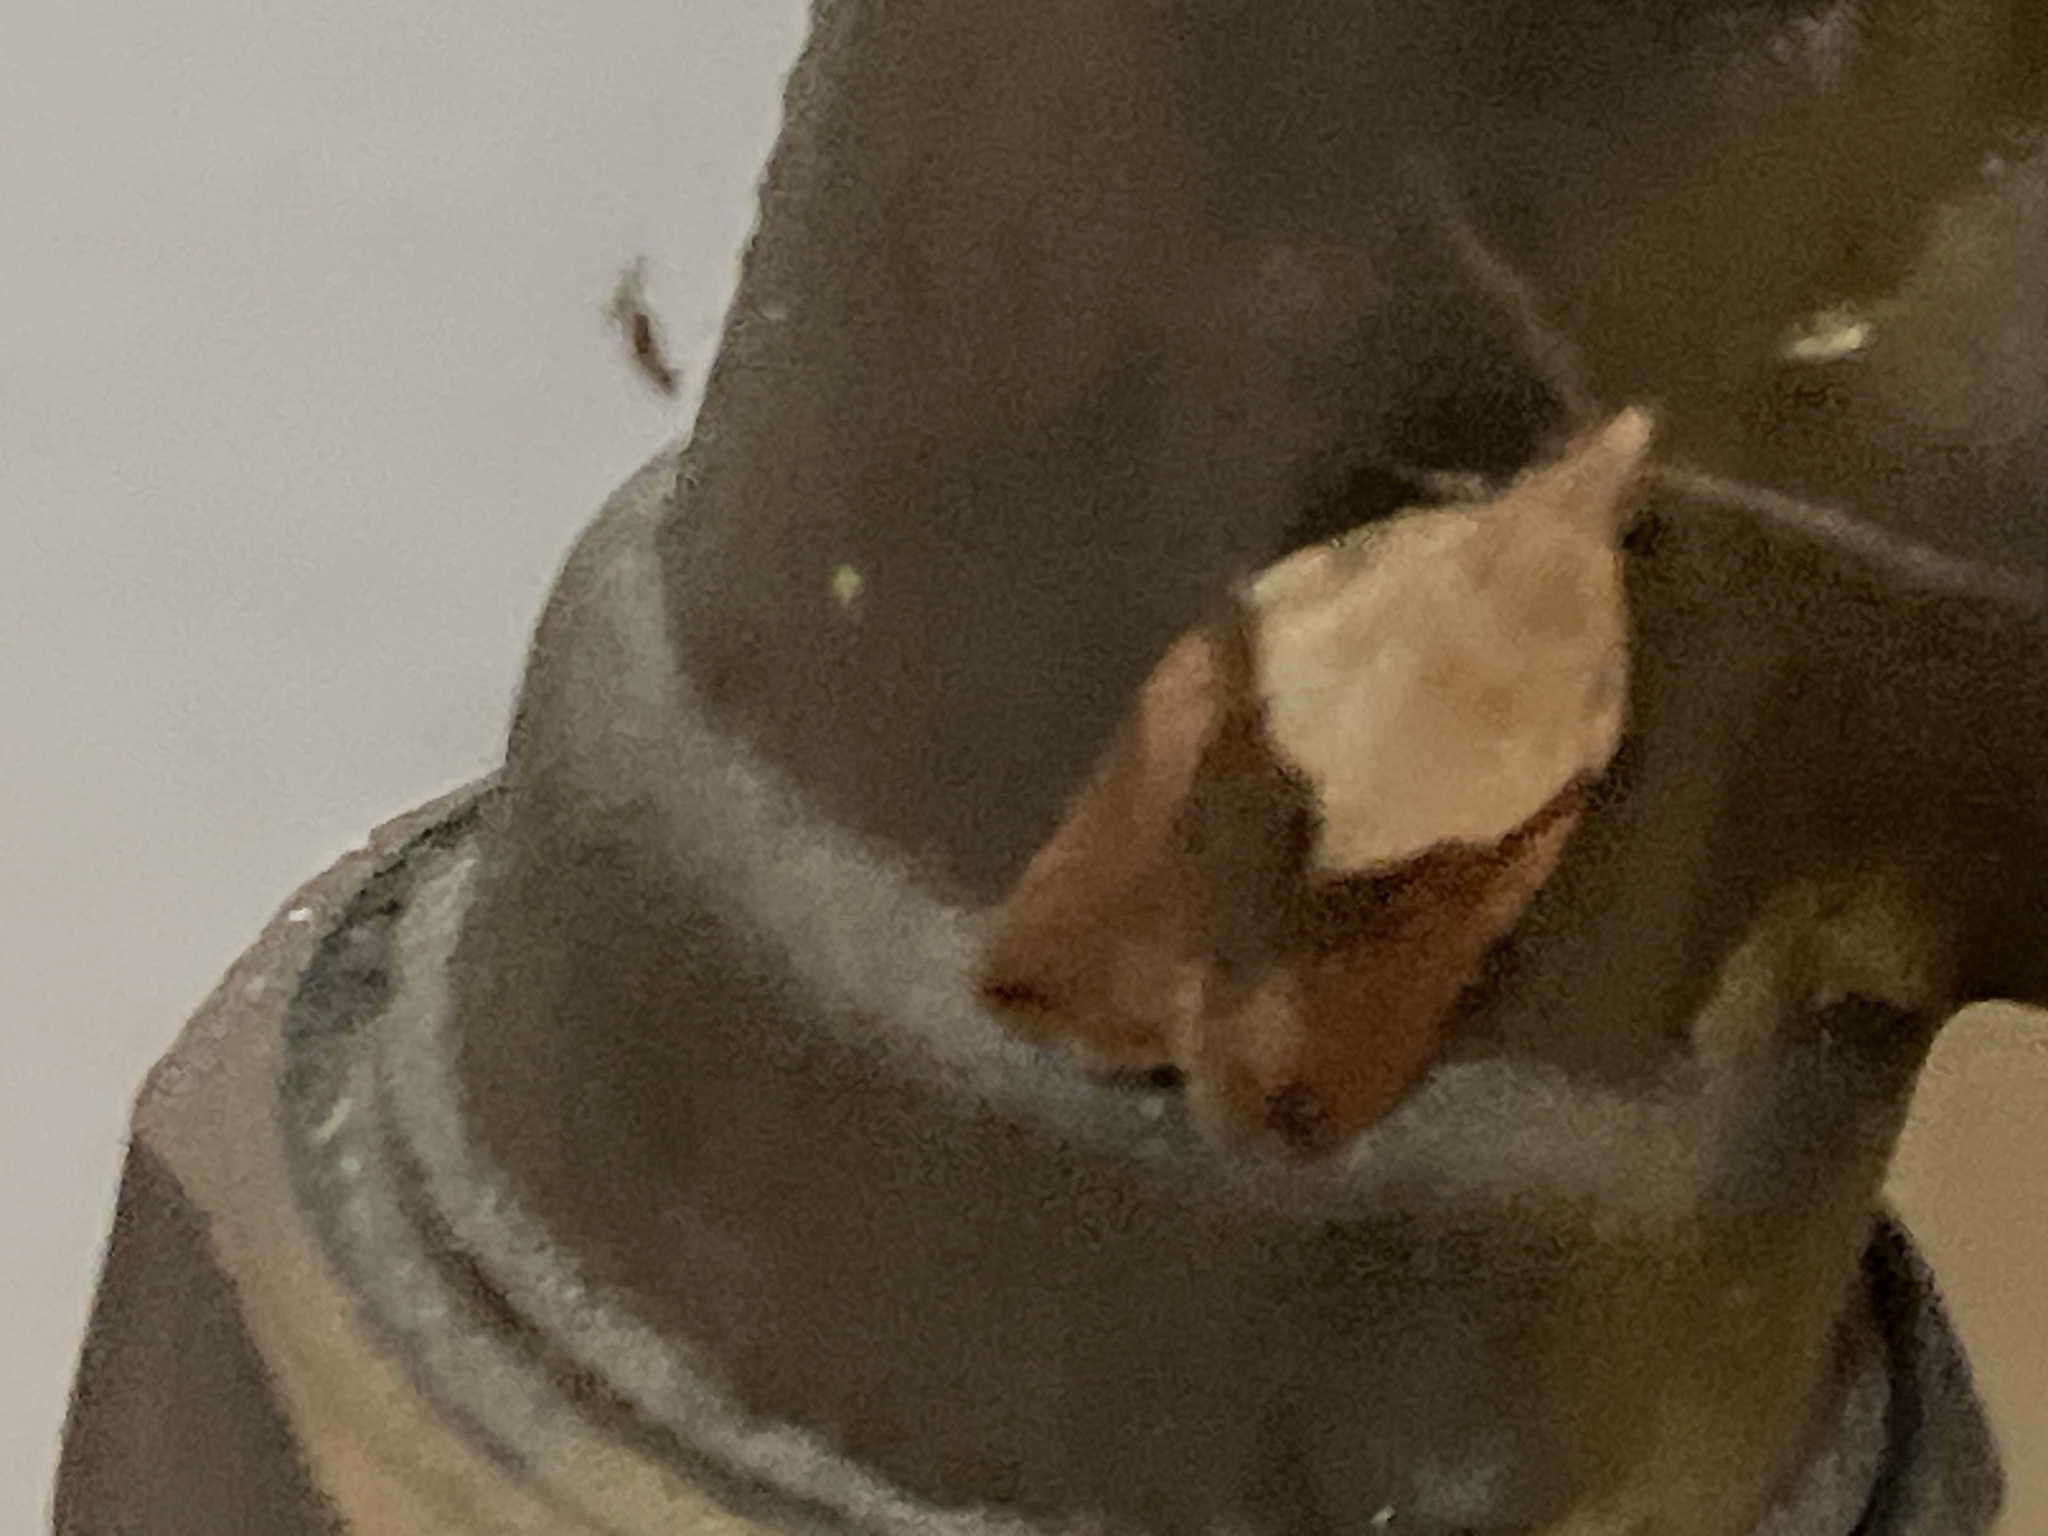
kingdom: Animalia
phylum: Arthropoda
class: Insecta
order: Lepidoptera
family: Tortricidae
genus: Epiphyas
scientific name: Epiphyas postvittana
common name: Light brown apple moth
